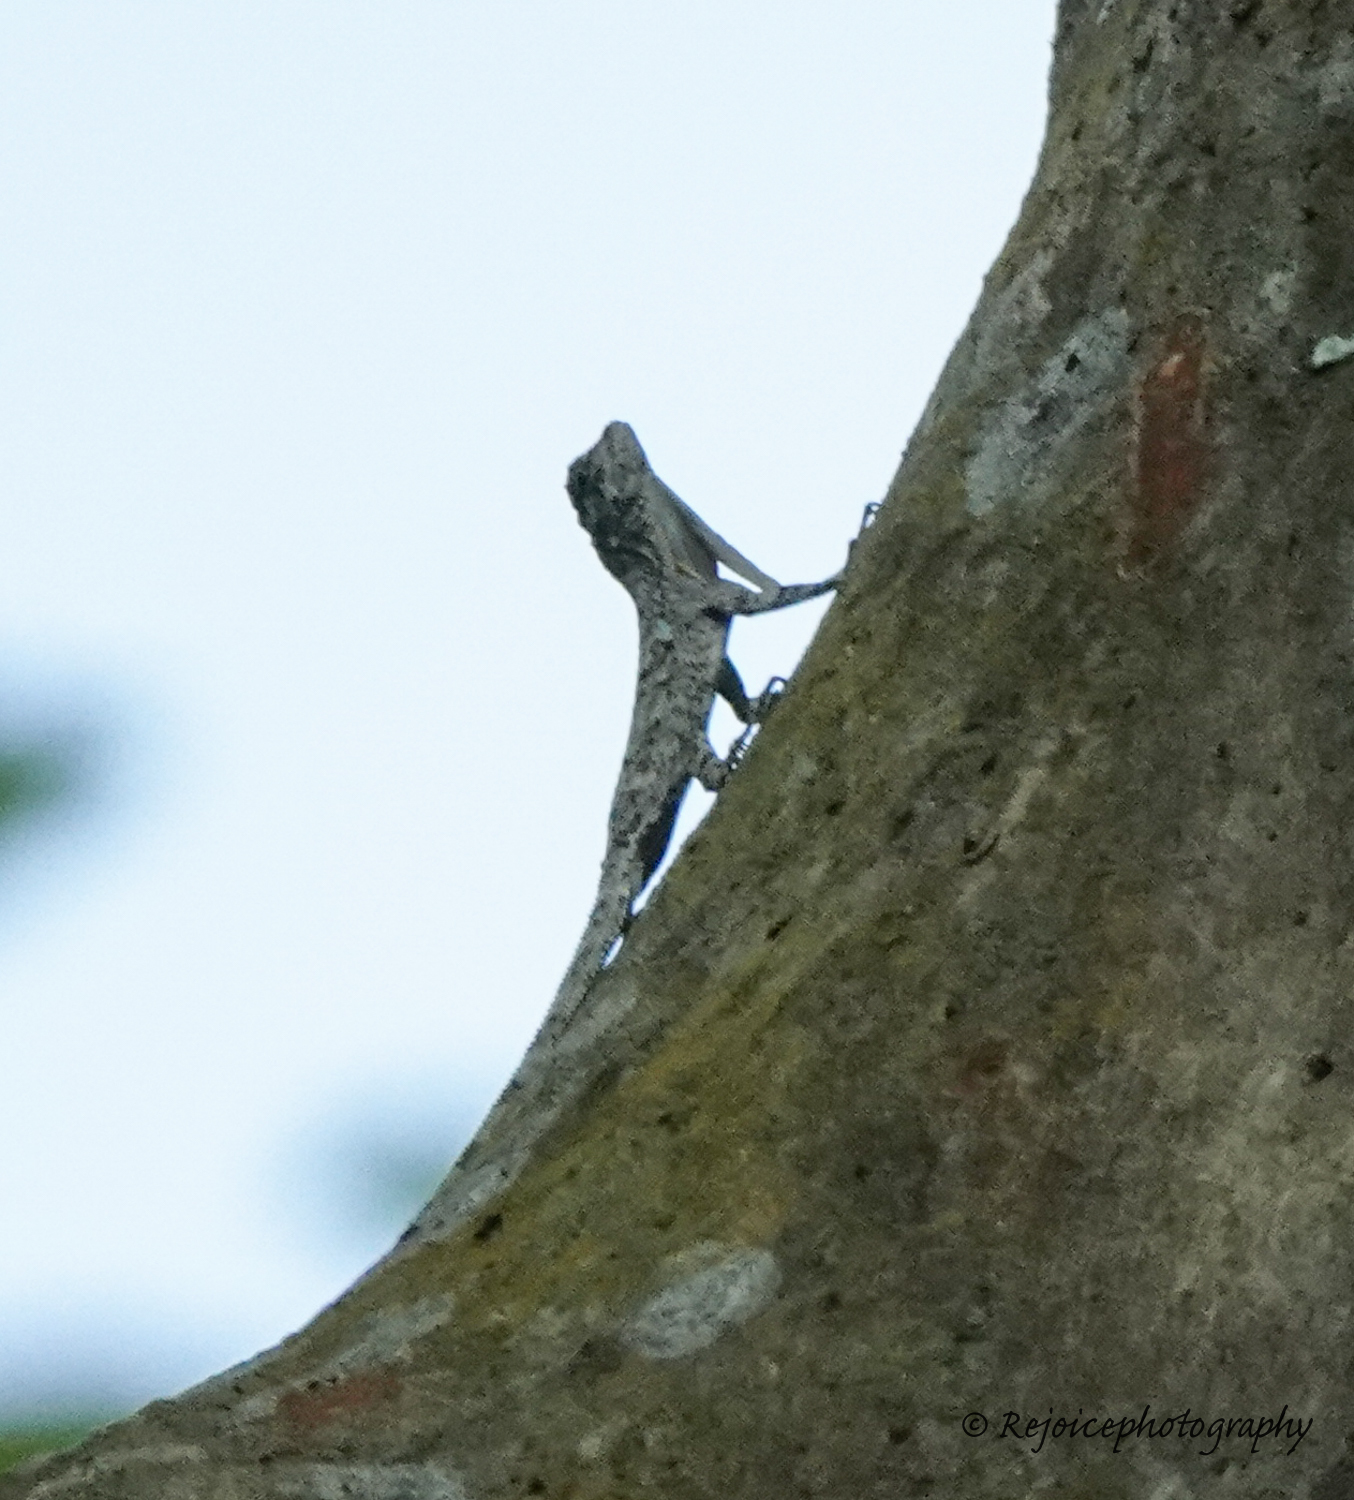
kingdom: Animalia
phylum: Chordata
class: Squamata
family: Agamidae
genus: Draco
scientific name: Draco maculatus
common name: Spotted flying dragon
